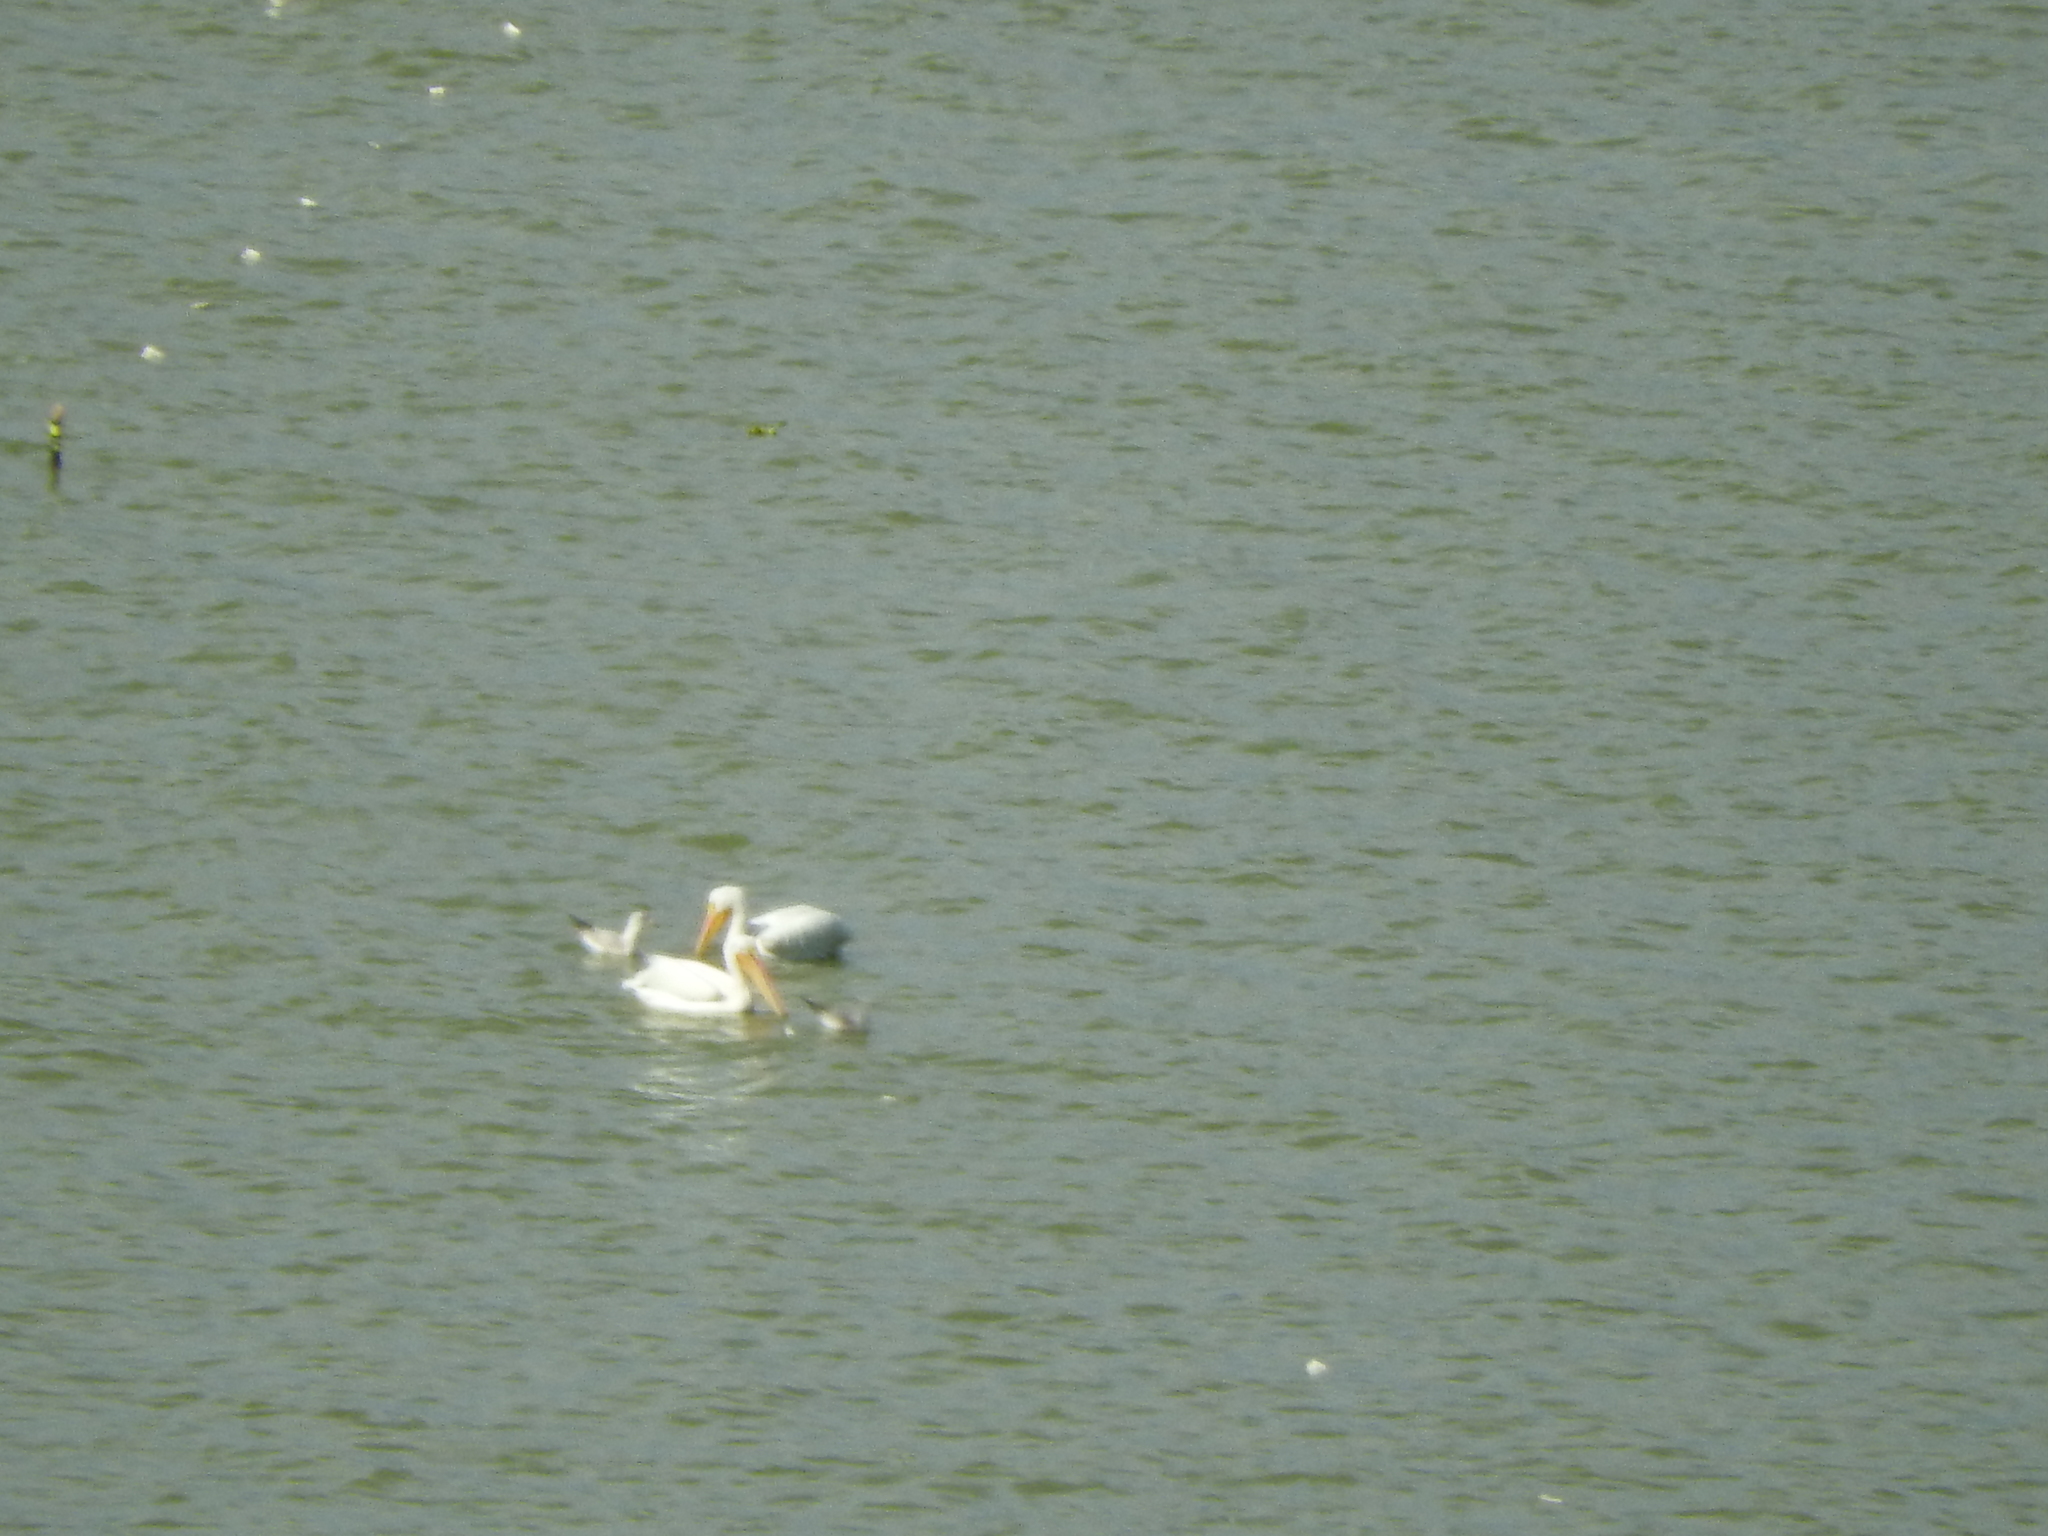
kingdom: Animalia
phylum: Chordata
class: Aves
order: Pelecaniformes
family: Pelecanidae
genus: Pelecanus
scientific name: Pelecanus erythrorhynchos
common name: American white pelican
